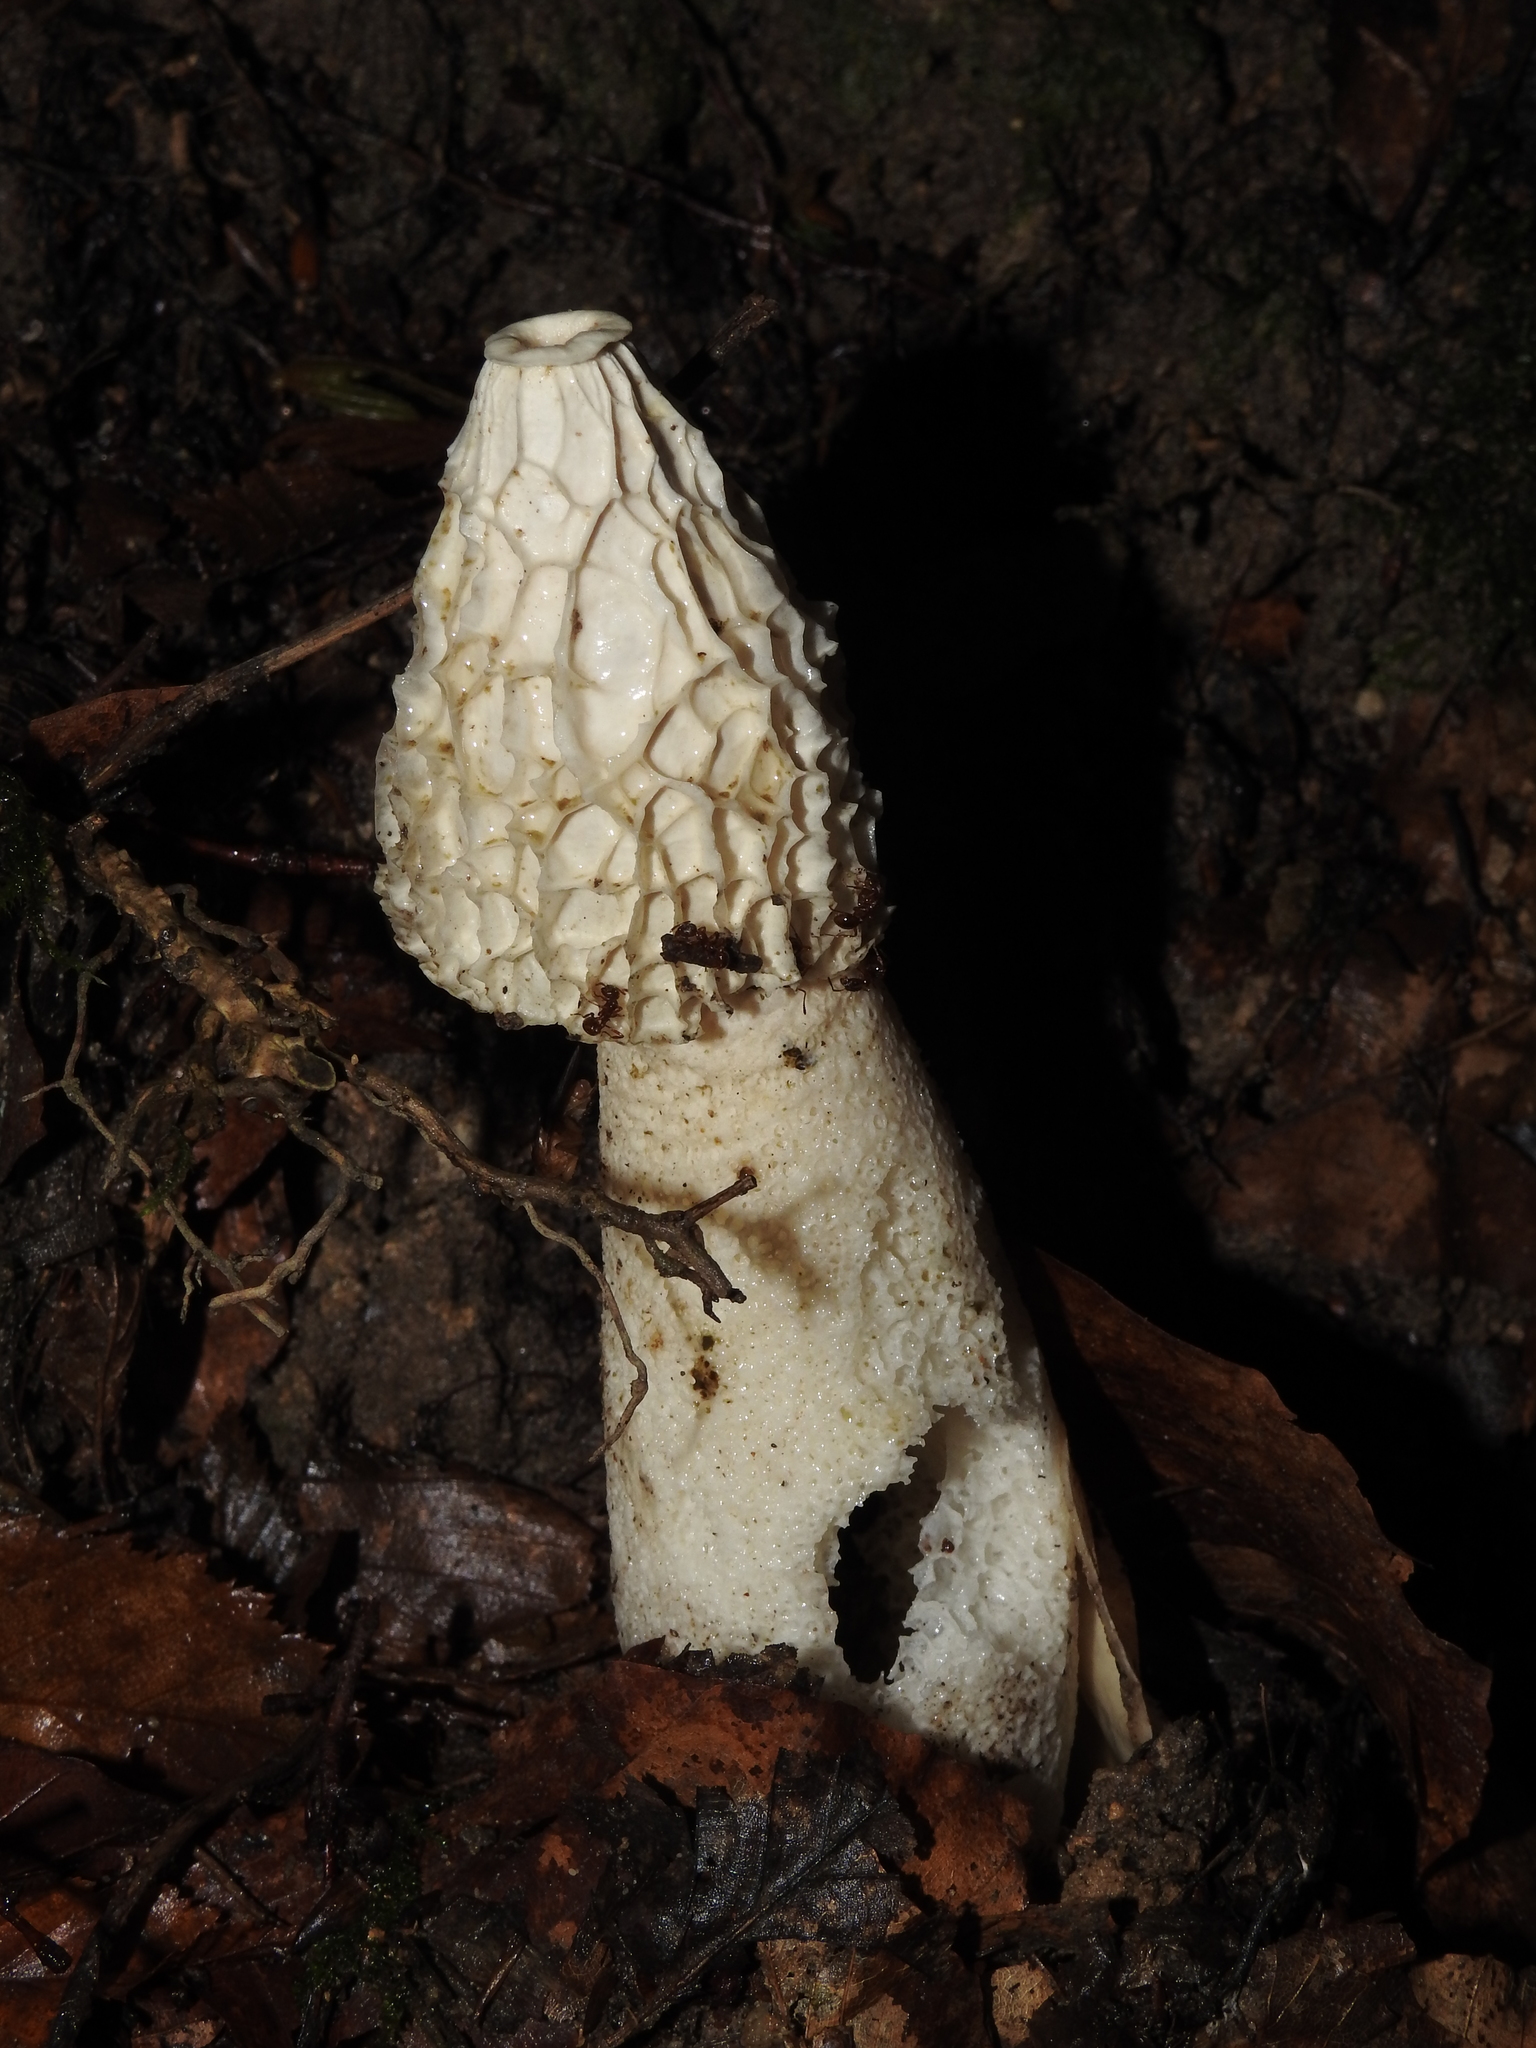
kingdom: Fungi
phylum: Basidiomycota
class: Agaricomycetes
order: Phallales
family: Phallaceae
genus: Phallus
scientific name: Phallus impudicus
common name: Common stinkhorn
